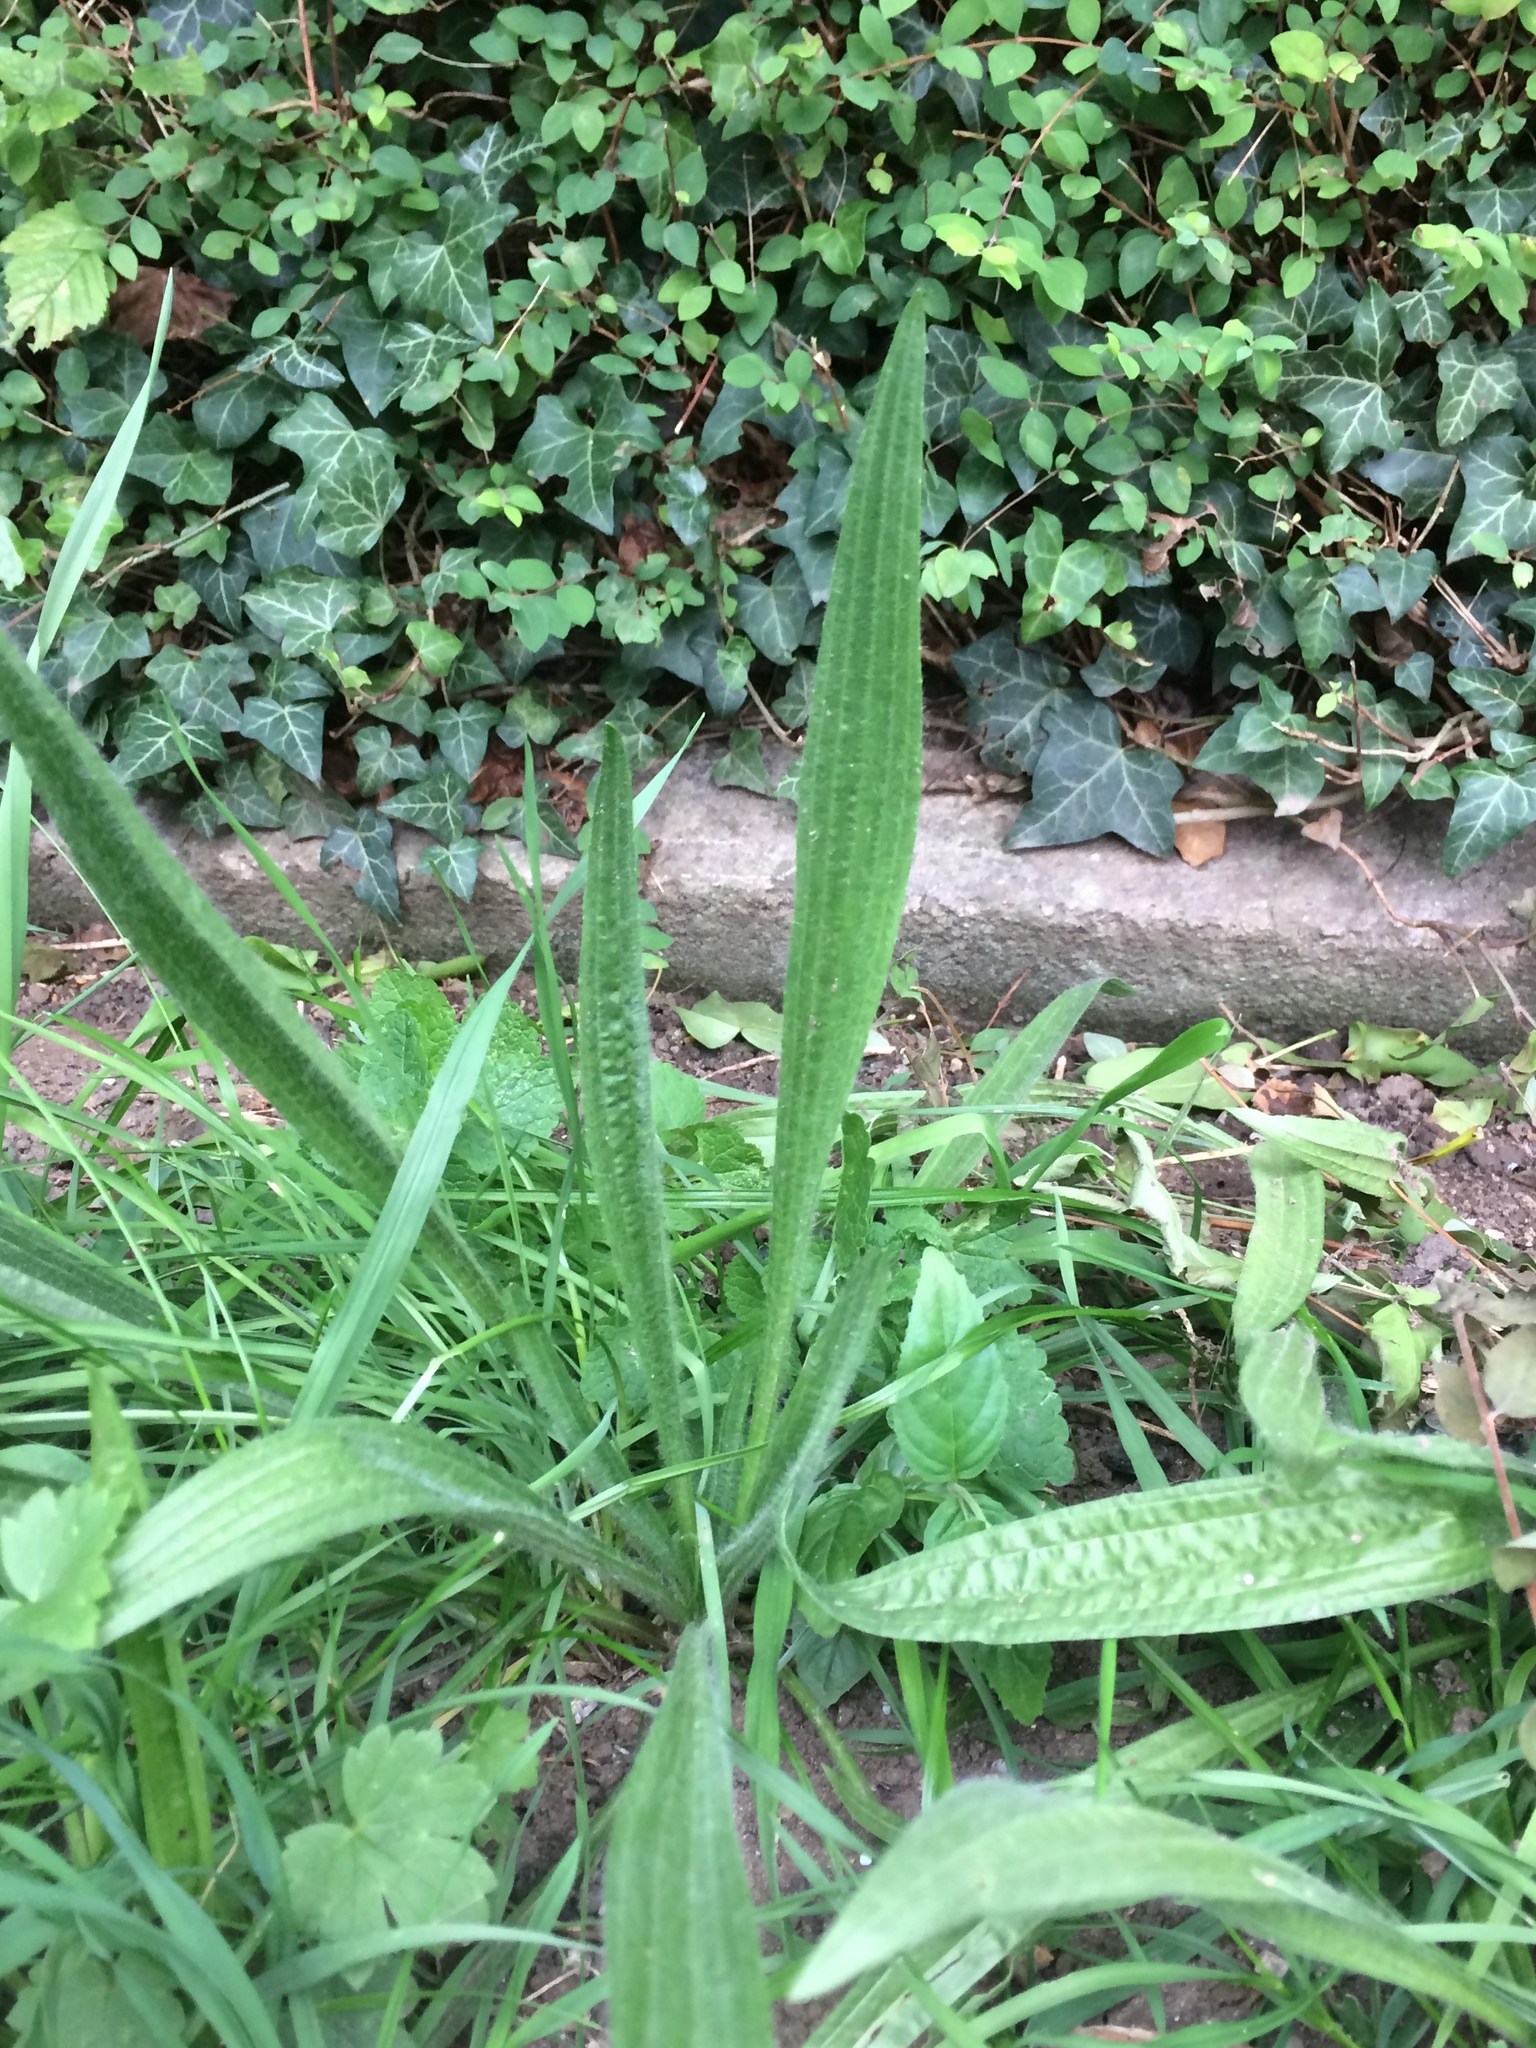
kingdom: Plantae
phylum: Tracheophyta
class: Magnoliopsida
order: Lamiales
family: Plantaginaceae
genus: Plantago
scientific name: Plantago lanceolata
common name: Ribwort plantain
